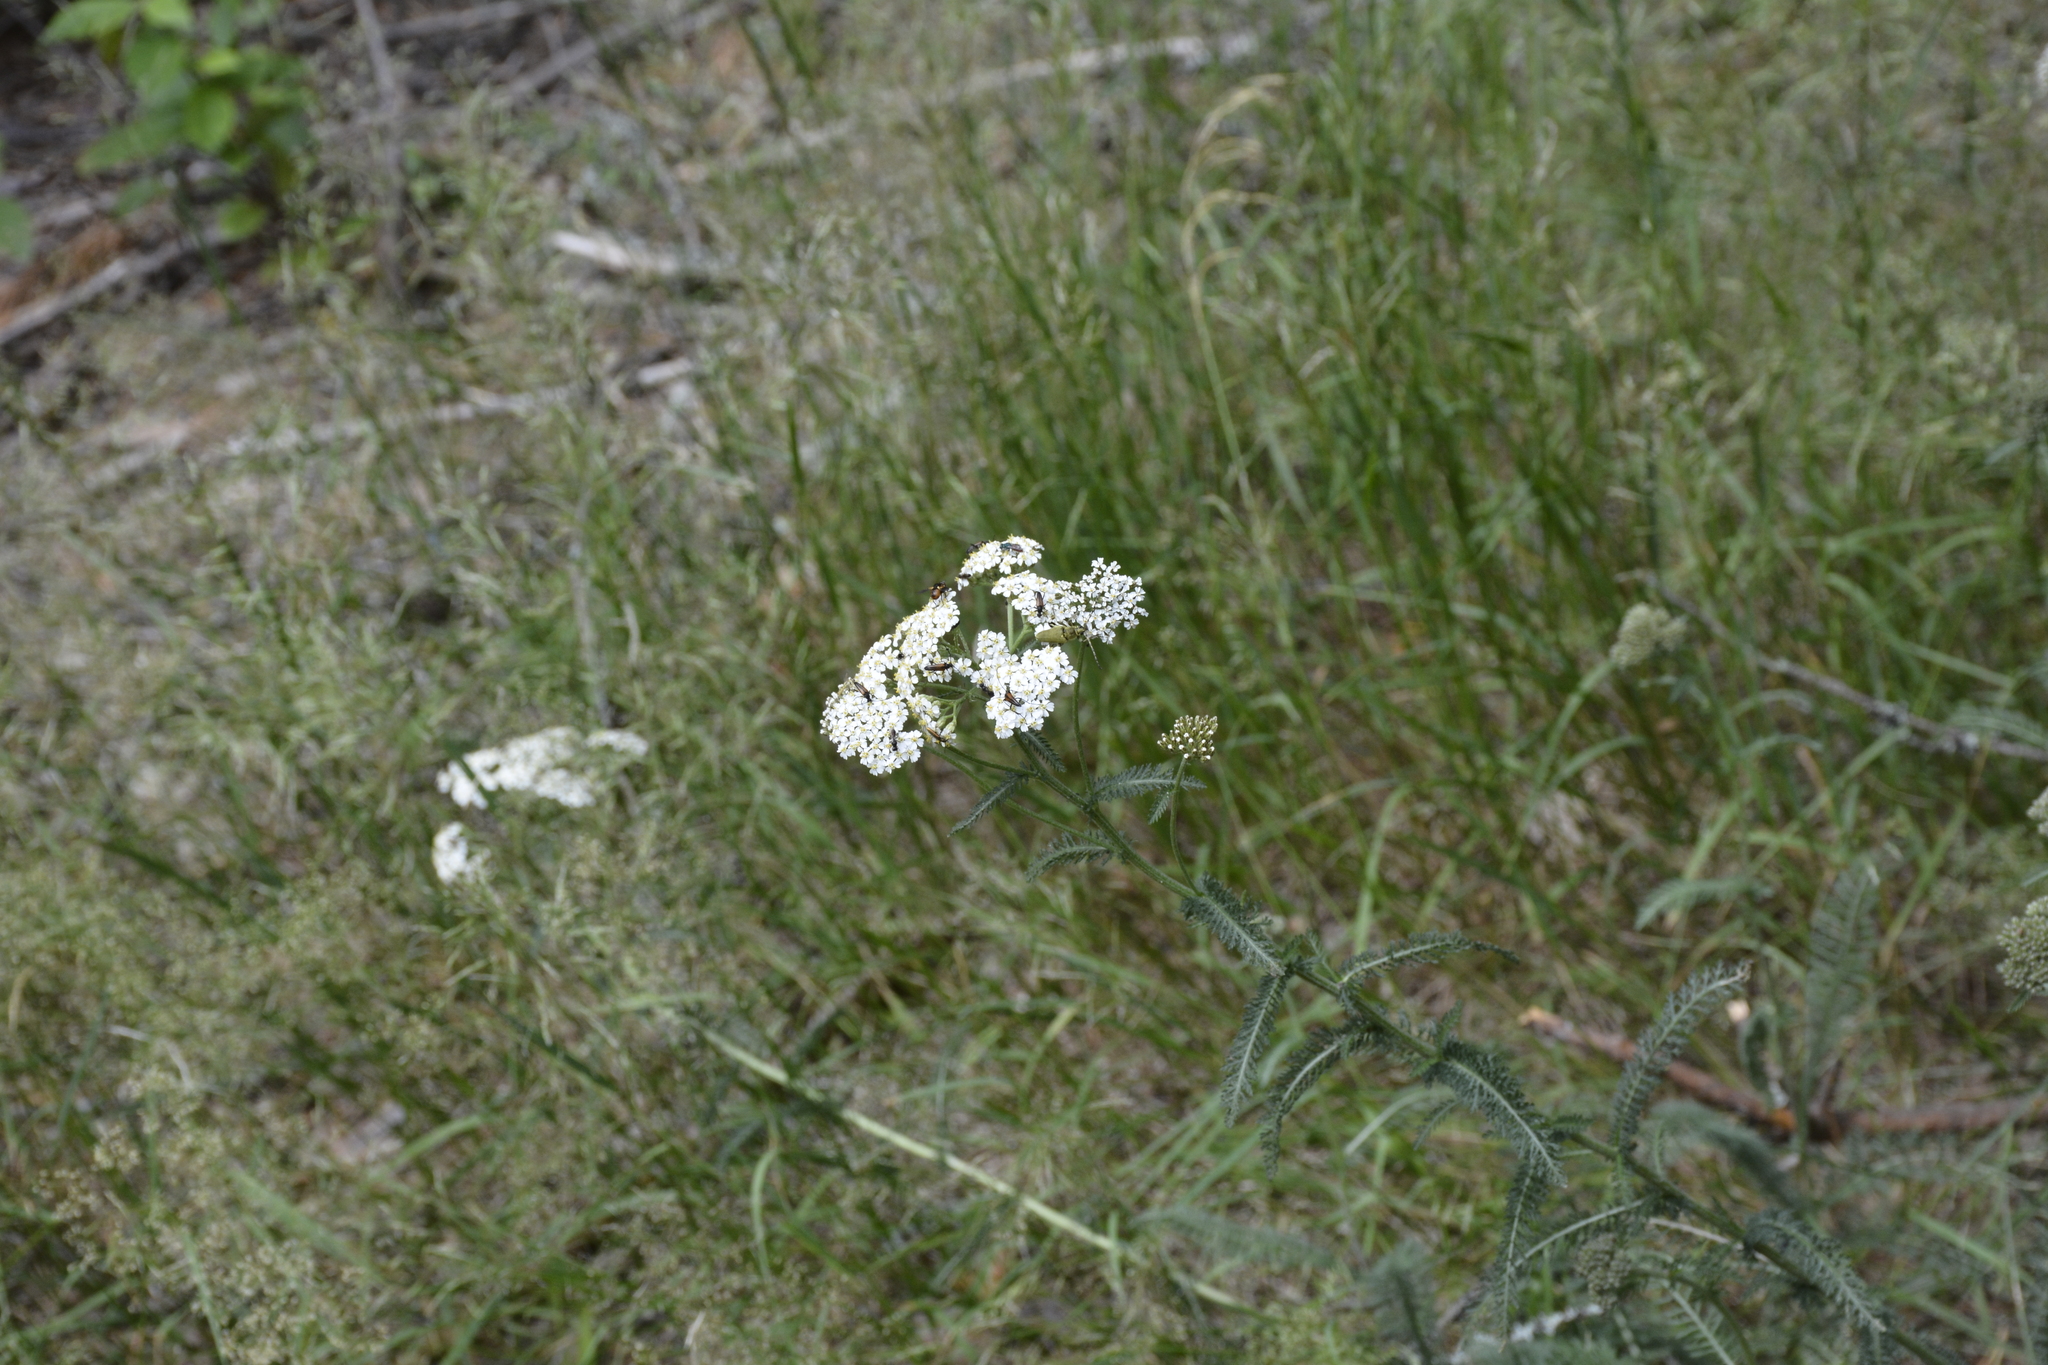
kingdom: Plantae
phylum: Tracheophyta
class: Magnoliopsida
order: Asterales
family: Asteraceae
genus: Achillea
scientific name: Achillea millefolium
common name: Yarrow
